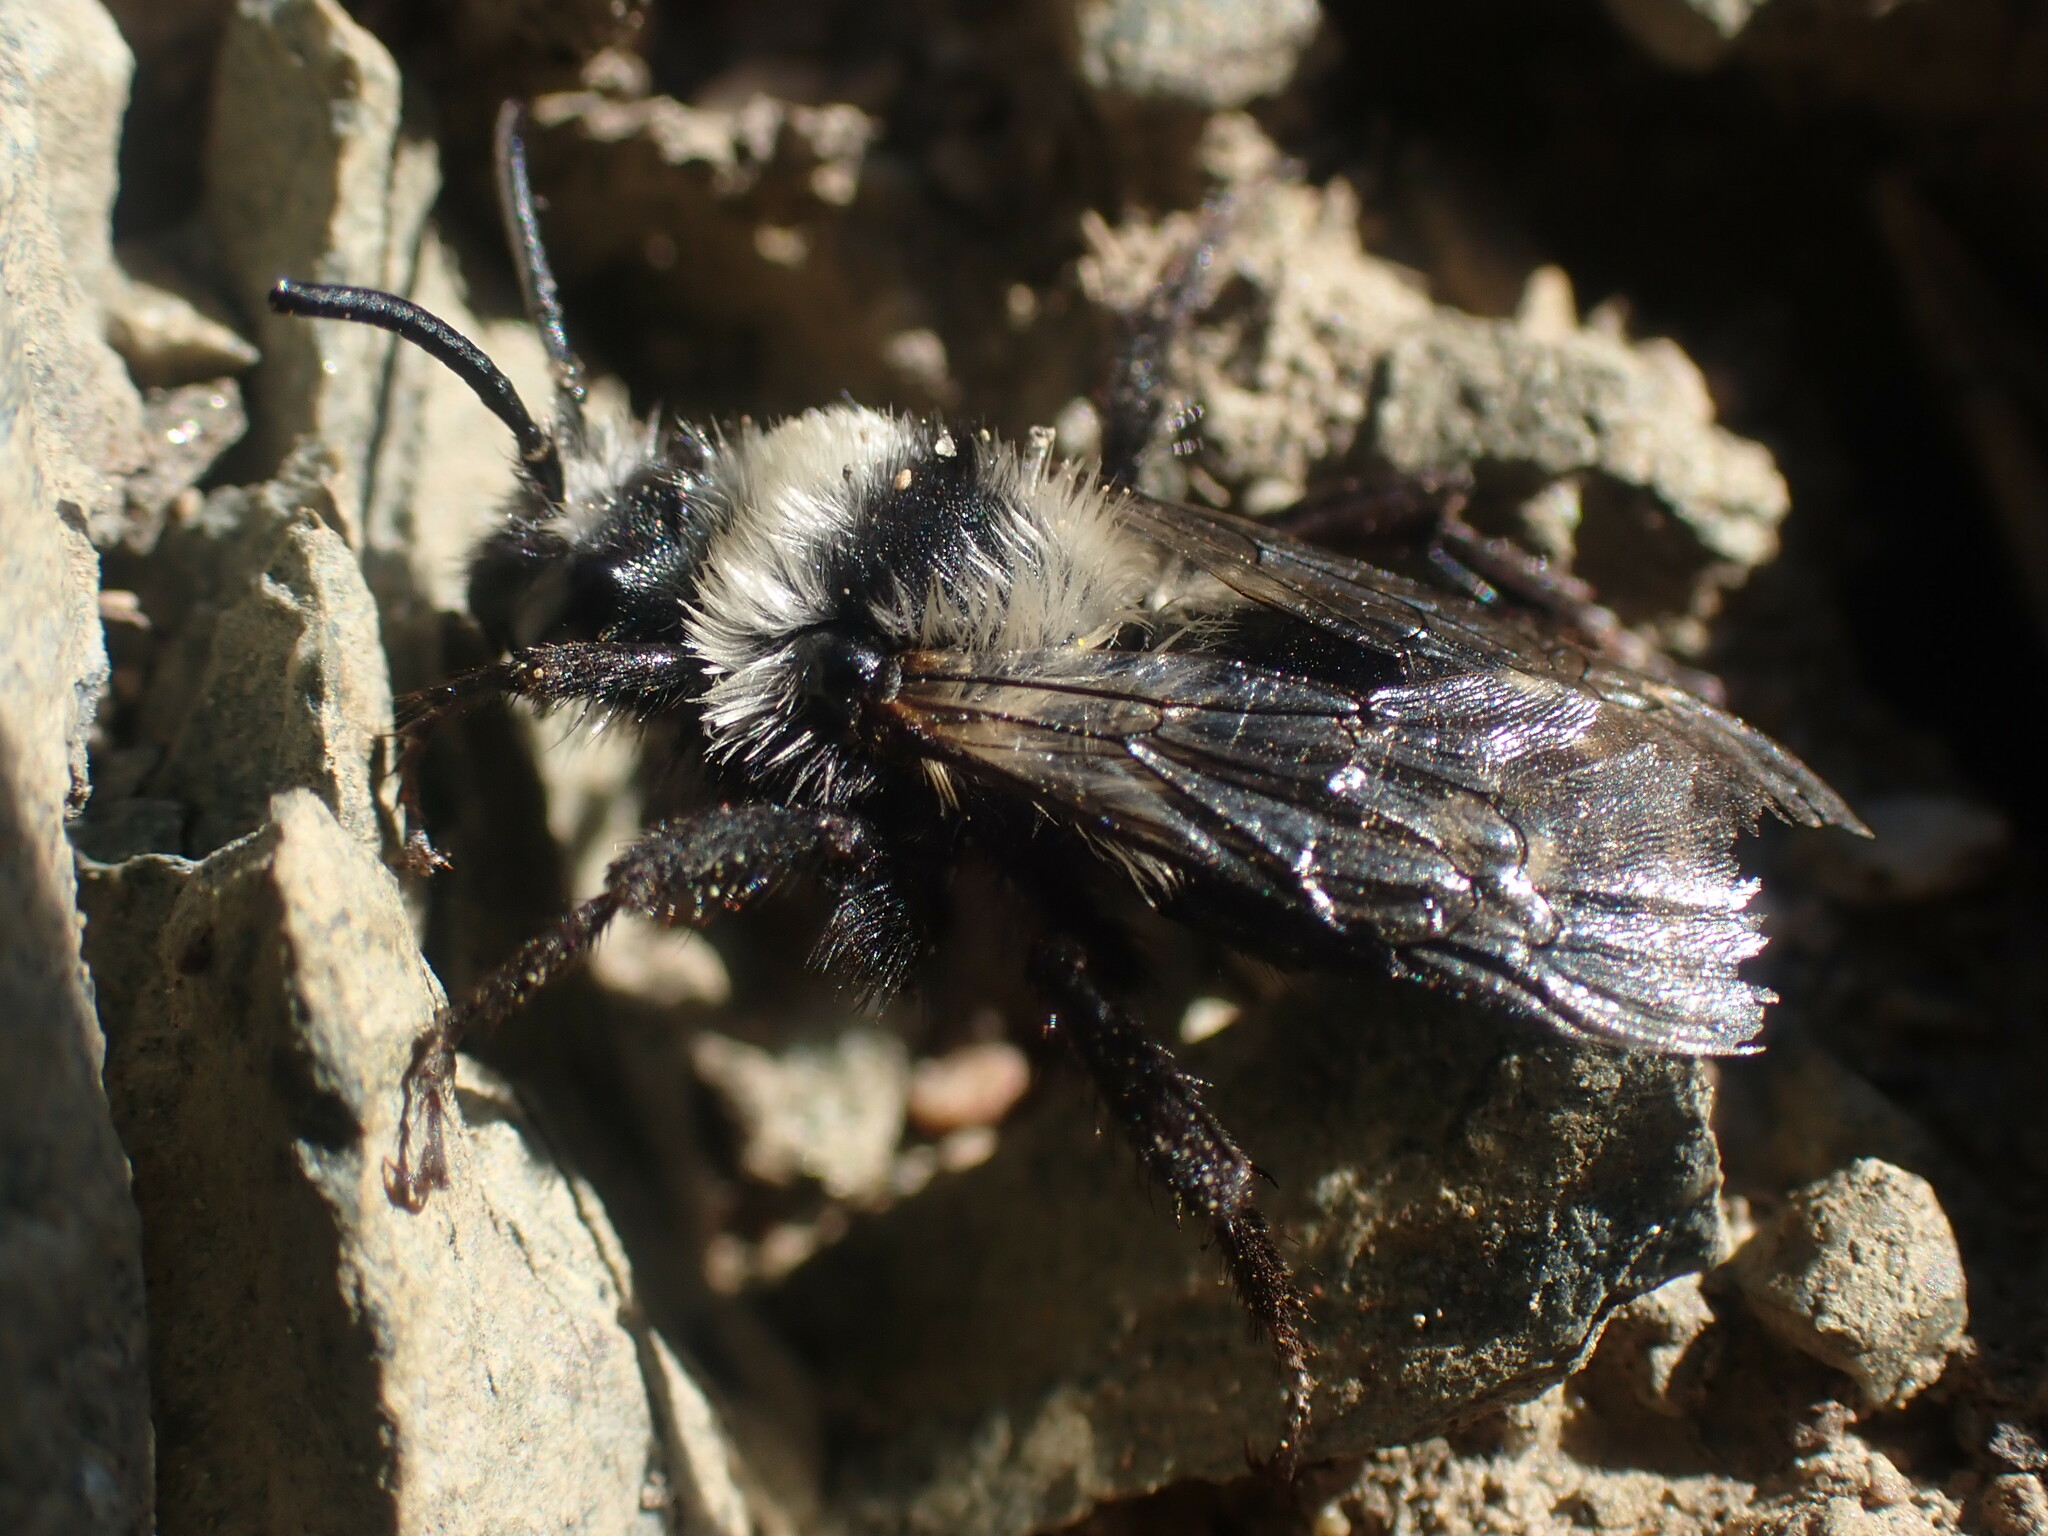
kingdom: Animalia
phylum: Arthropoda
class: Insecta
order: Hymenoptera
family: Apidae
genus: Melecta
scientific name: Melecta separata
